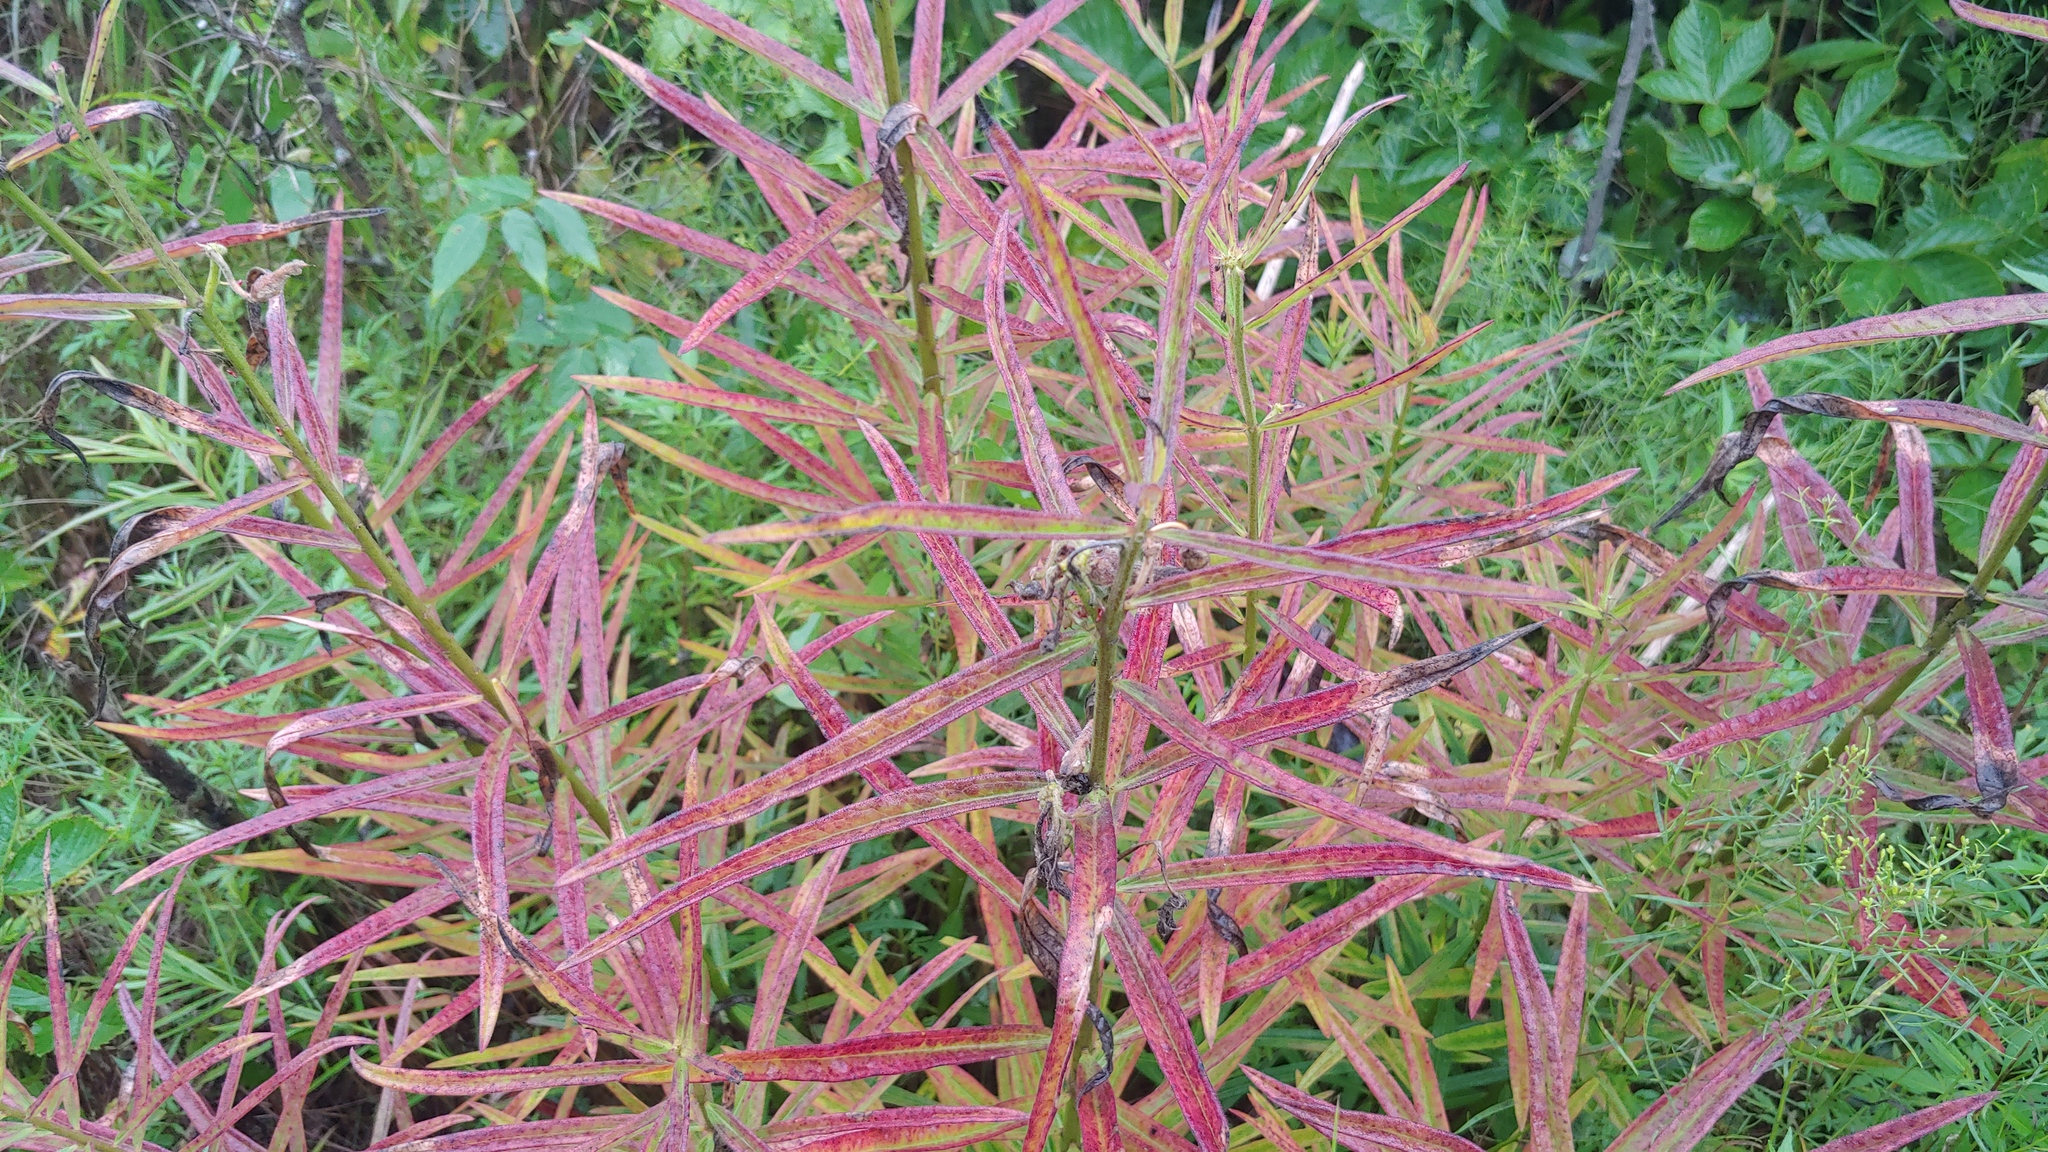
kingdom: Plantae
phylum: Tracheophyta
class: Magnoliopsida
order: Gentianales
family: Apocynaceae
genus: Asclepias
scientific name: Asclepias hirtella
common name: Prairie milkweed
